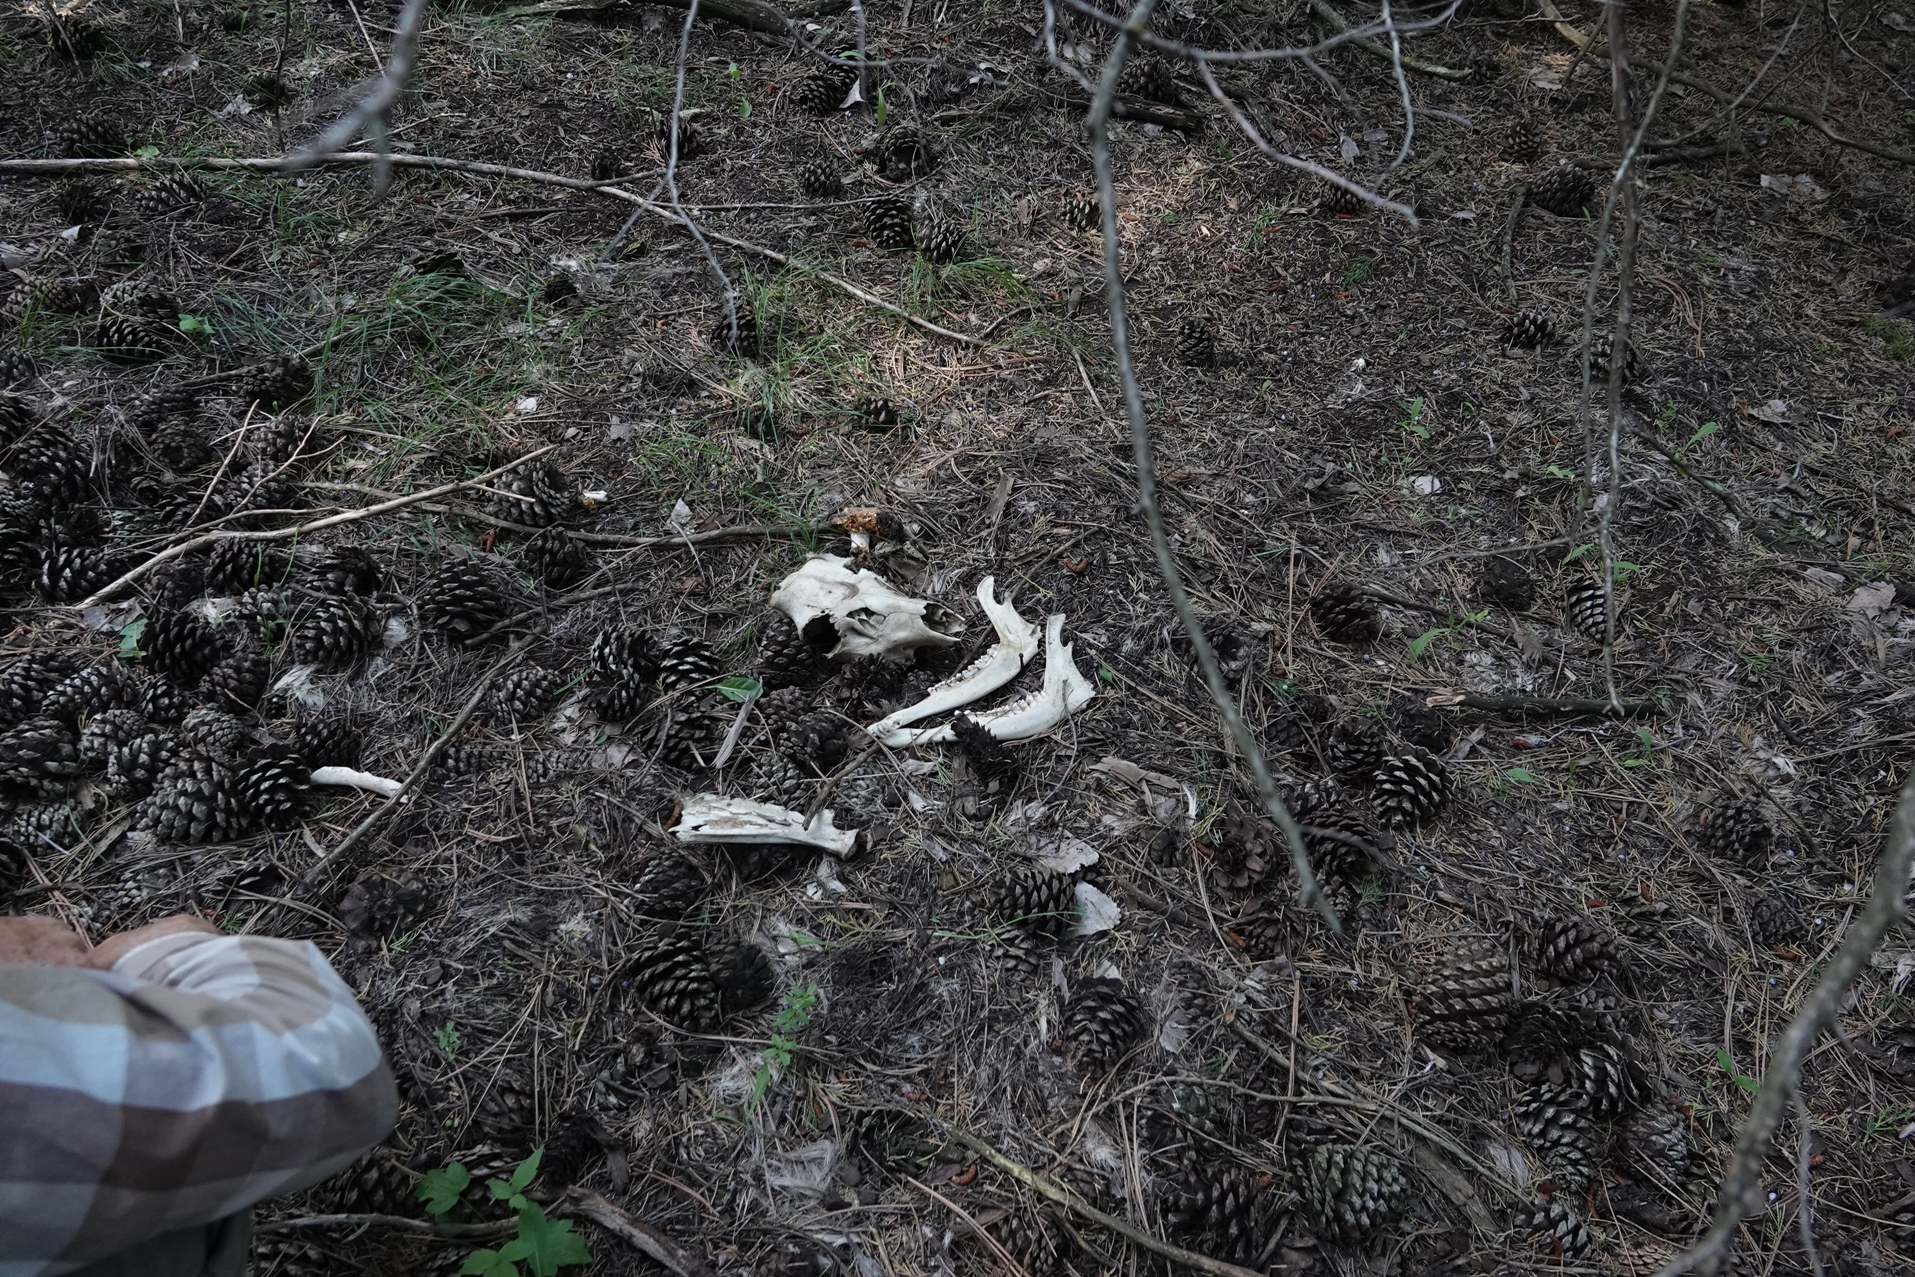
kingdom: Animalia
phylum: Chordata
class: Mammalia
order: Carnivora
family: Felidae
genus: Puma
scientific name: Puma concolor
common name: Puma
